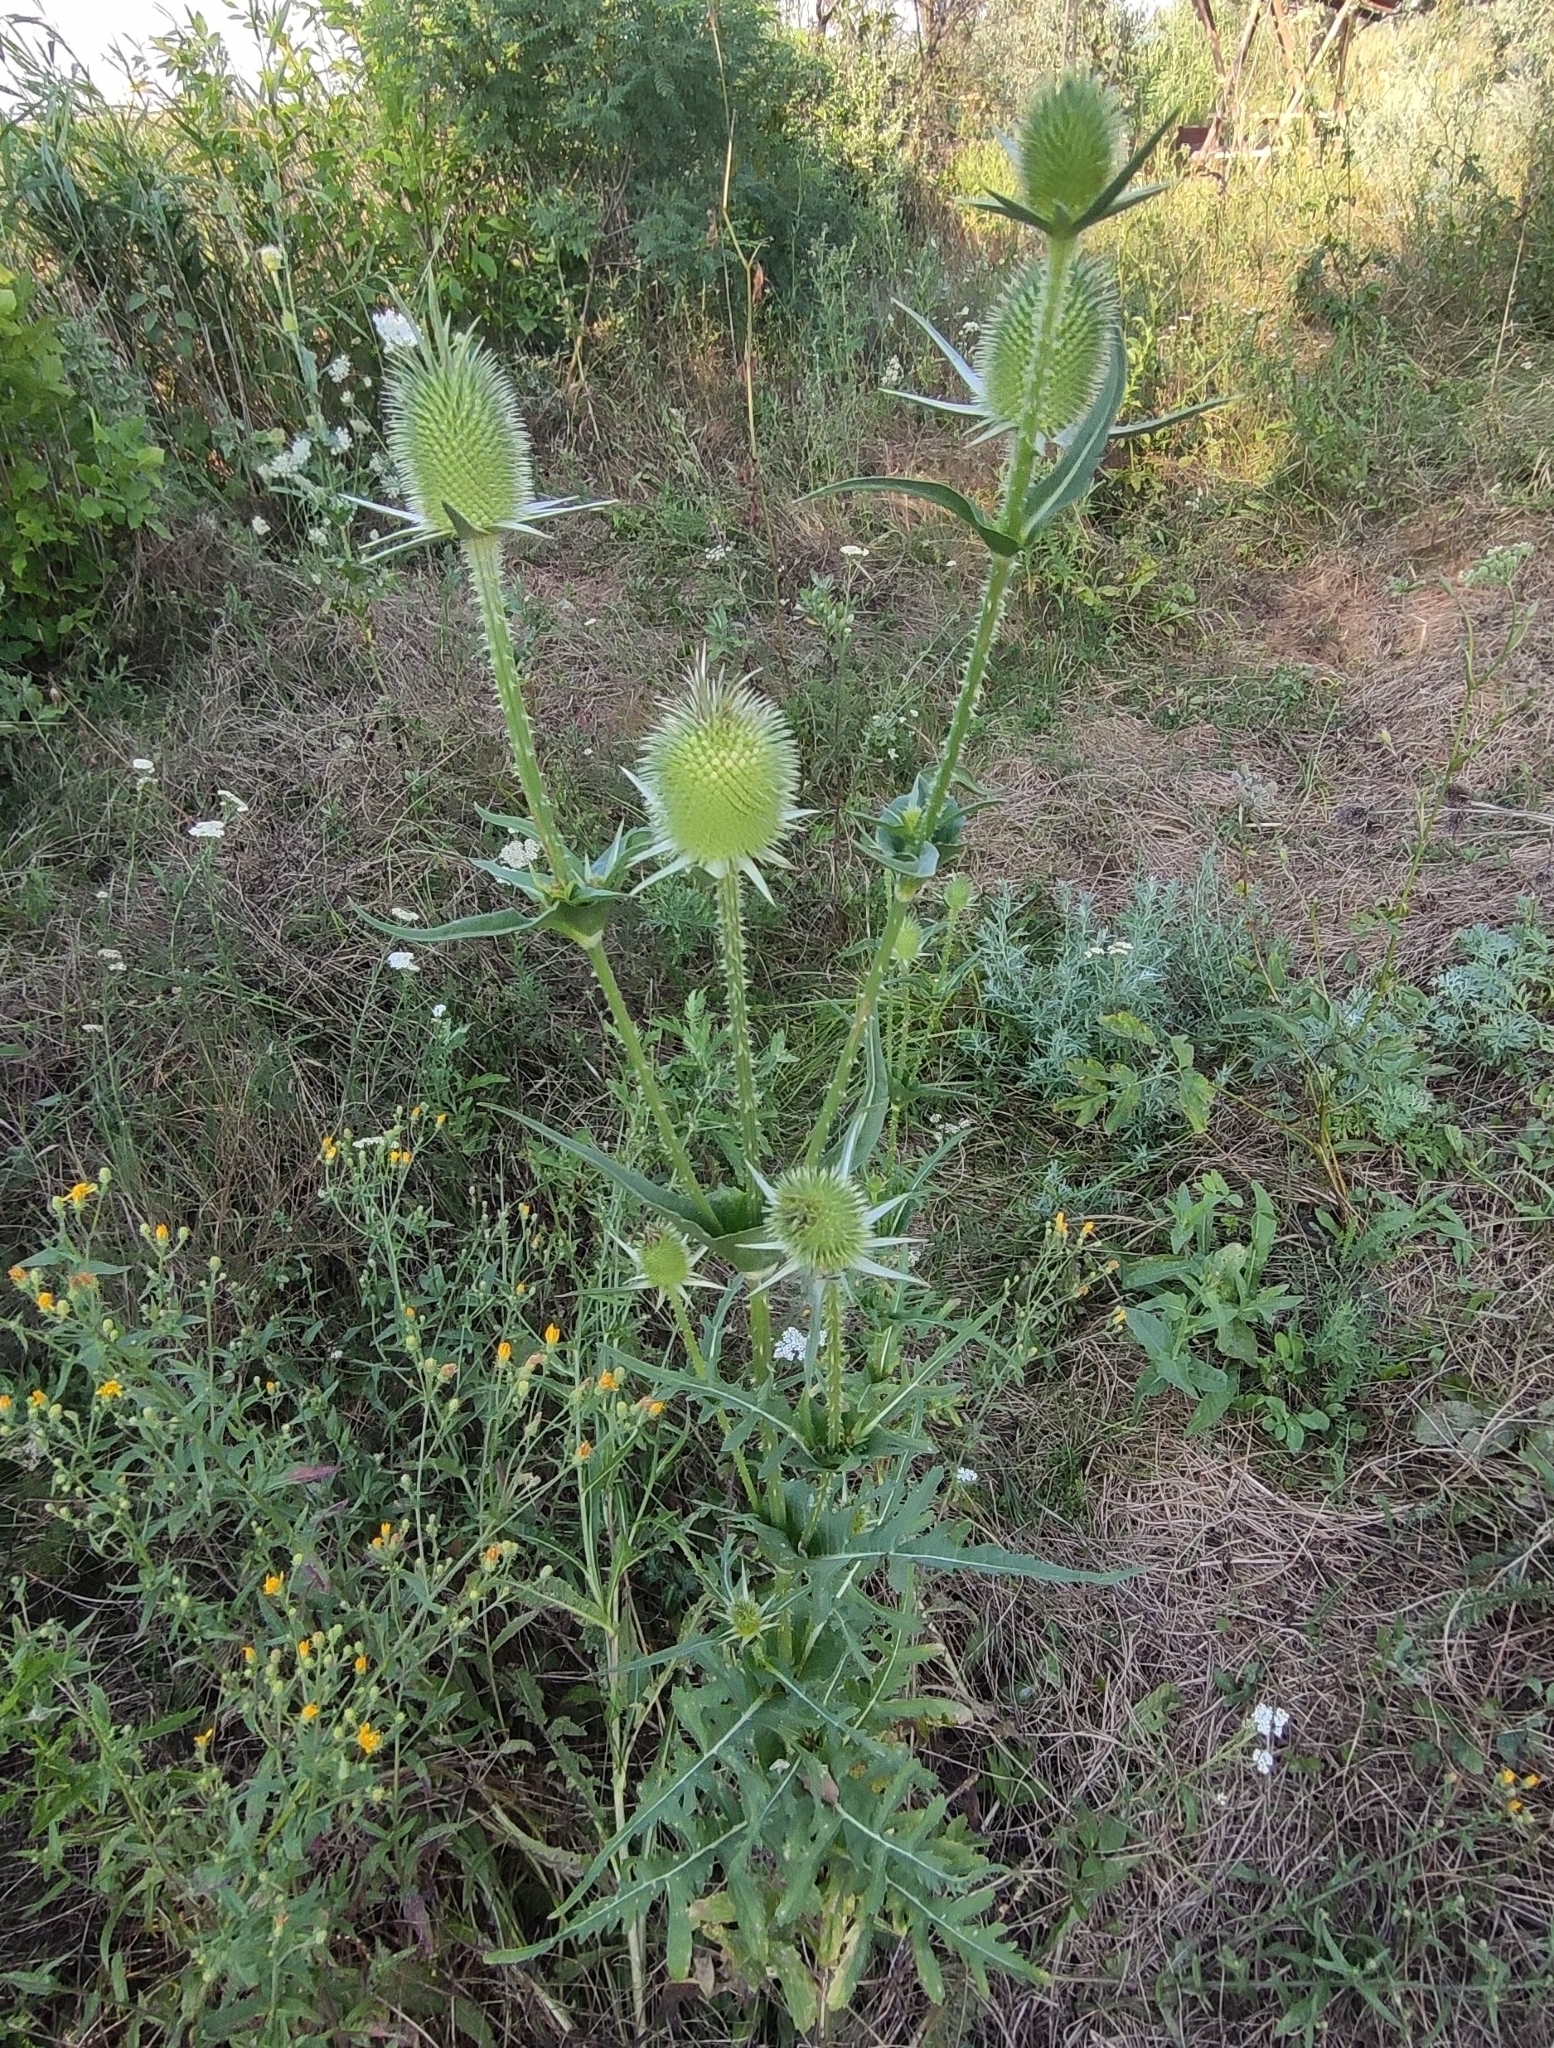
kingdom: Plantae
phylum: Tracheophyta
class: Magnoliopsida
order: Dipsacales
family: Caprifoliaceae
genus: Dipsacus
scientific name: Dipsacus laciniatus
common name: Cut-leaved teasel
